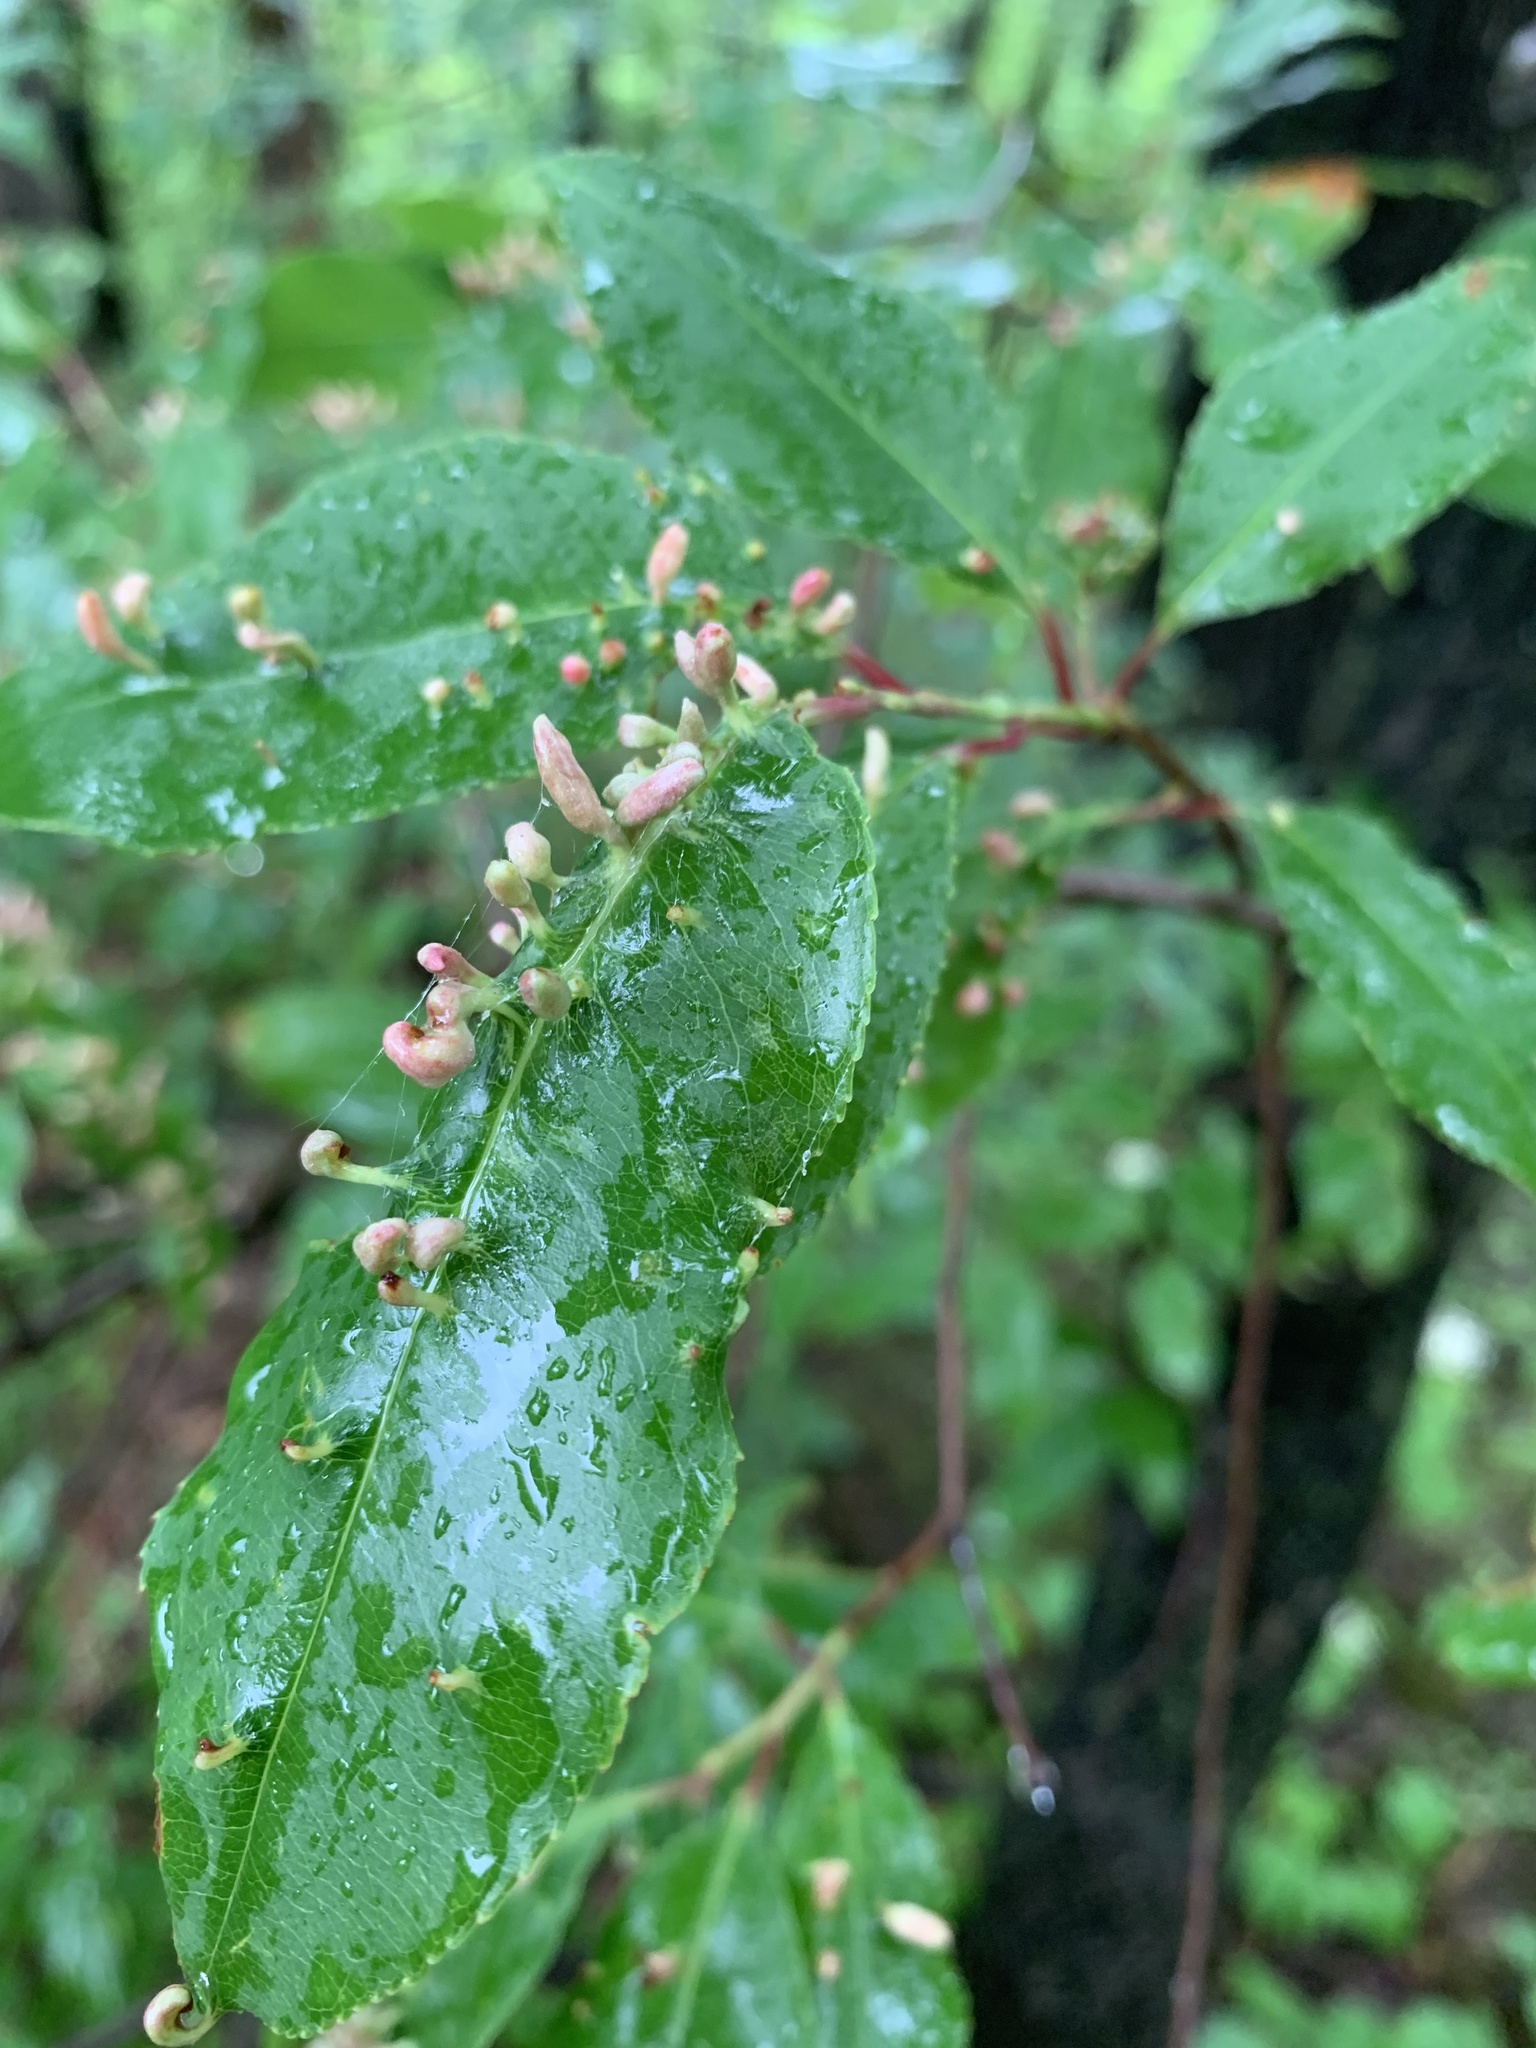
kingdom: Animalia
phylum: Arthropoda
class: Arachnida
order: Trombidiformes
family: Eriophyidae
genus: Eriophyes
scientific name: Eriophyes
